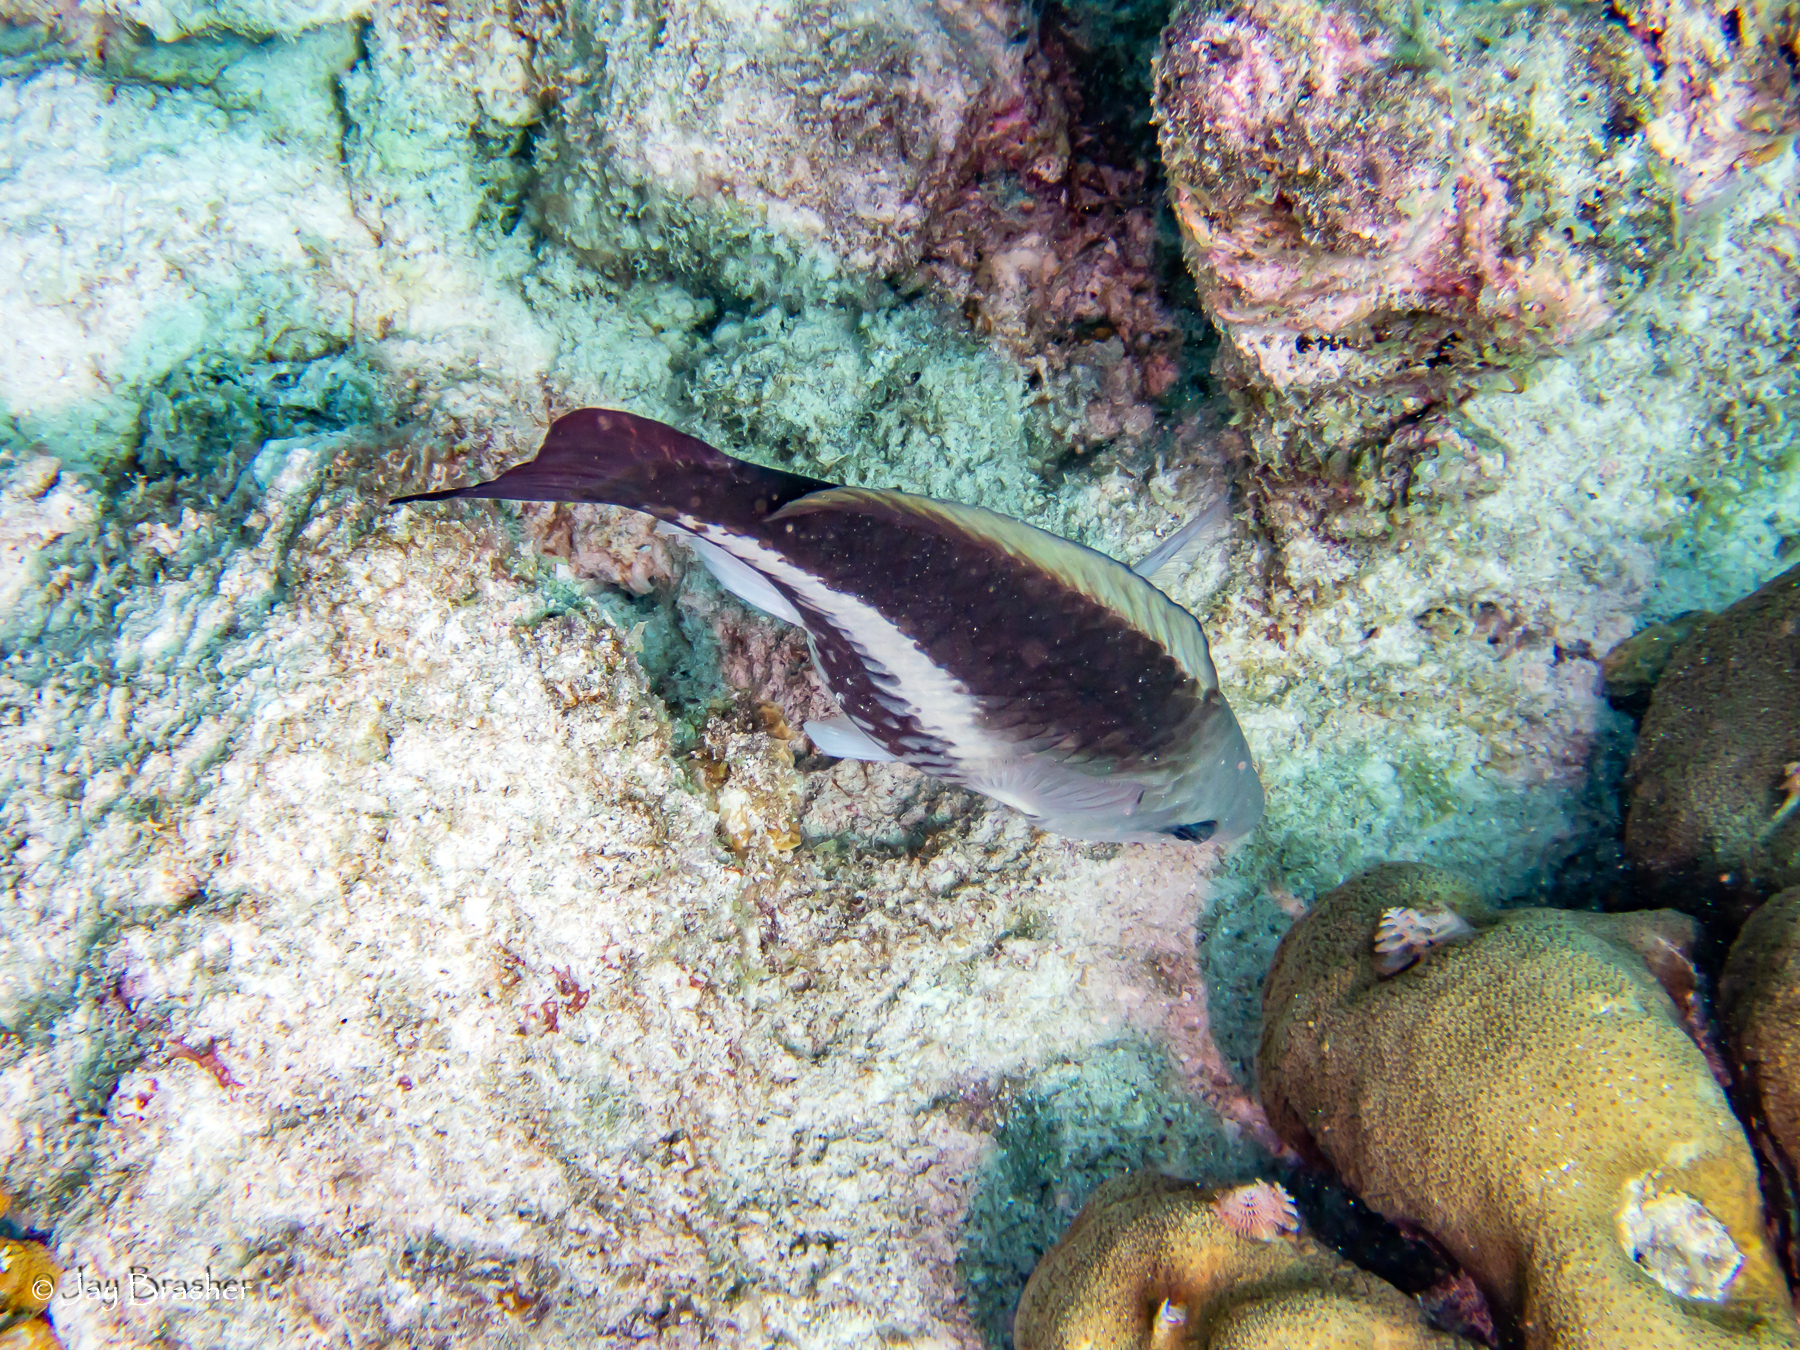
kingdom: Animalia
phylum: Chordata
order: Perciformes
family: Scaridae
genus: Scarus
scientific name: Scarus vetula
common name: Queen parrotfish
